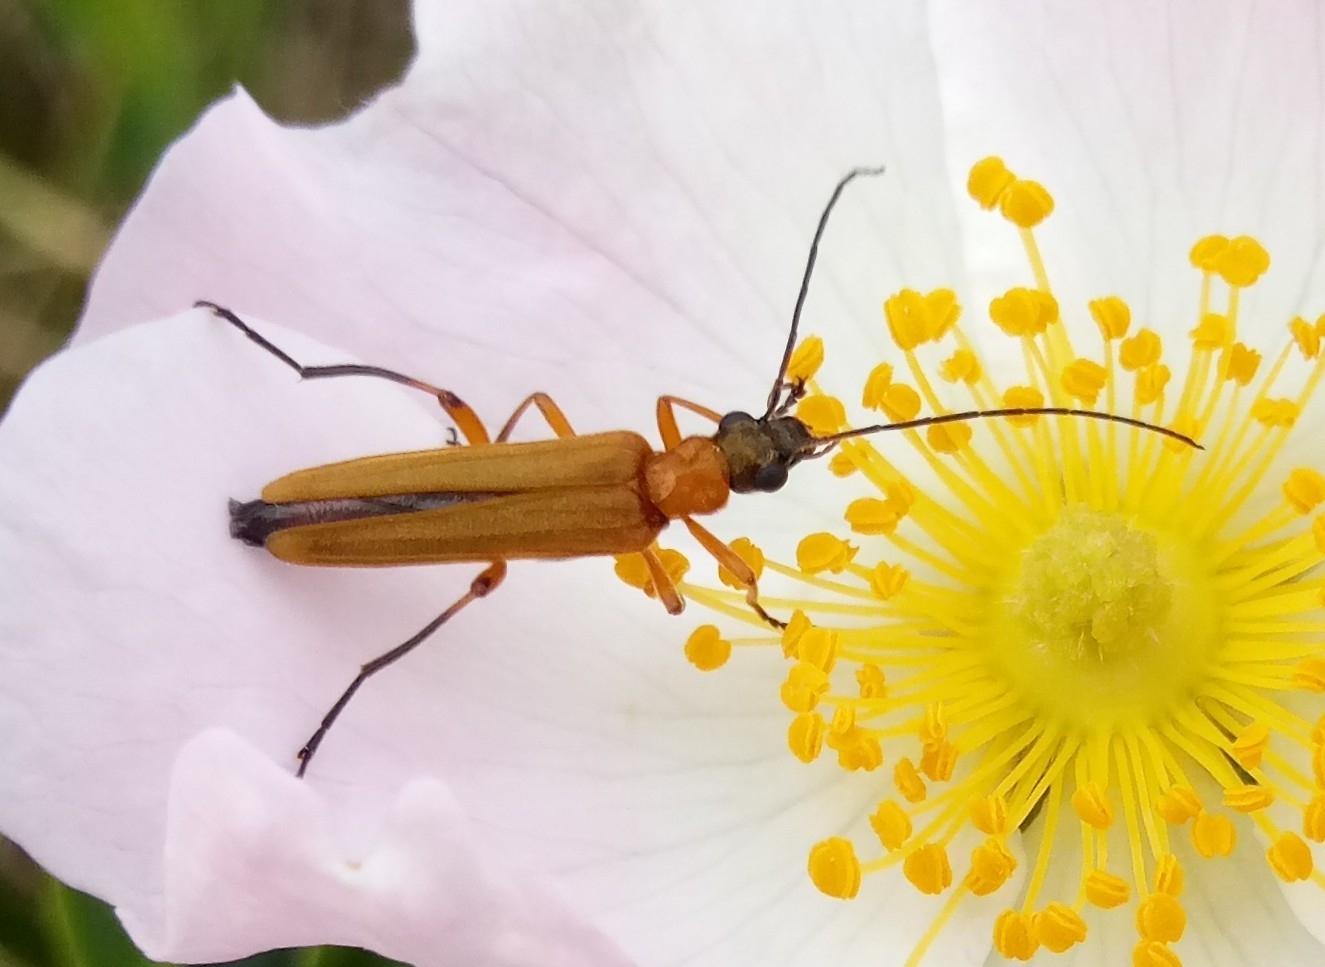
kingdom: Animalia
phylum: Arthropoda
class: Insecta
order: Coleoptera
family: Oedemeridae
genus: Oedemera
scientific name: Oedemera podagrariae
